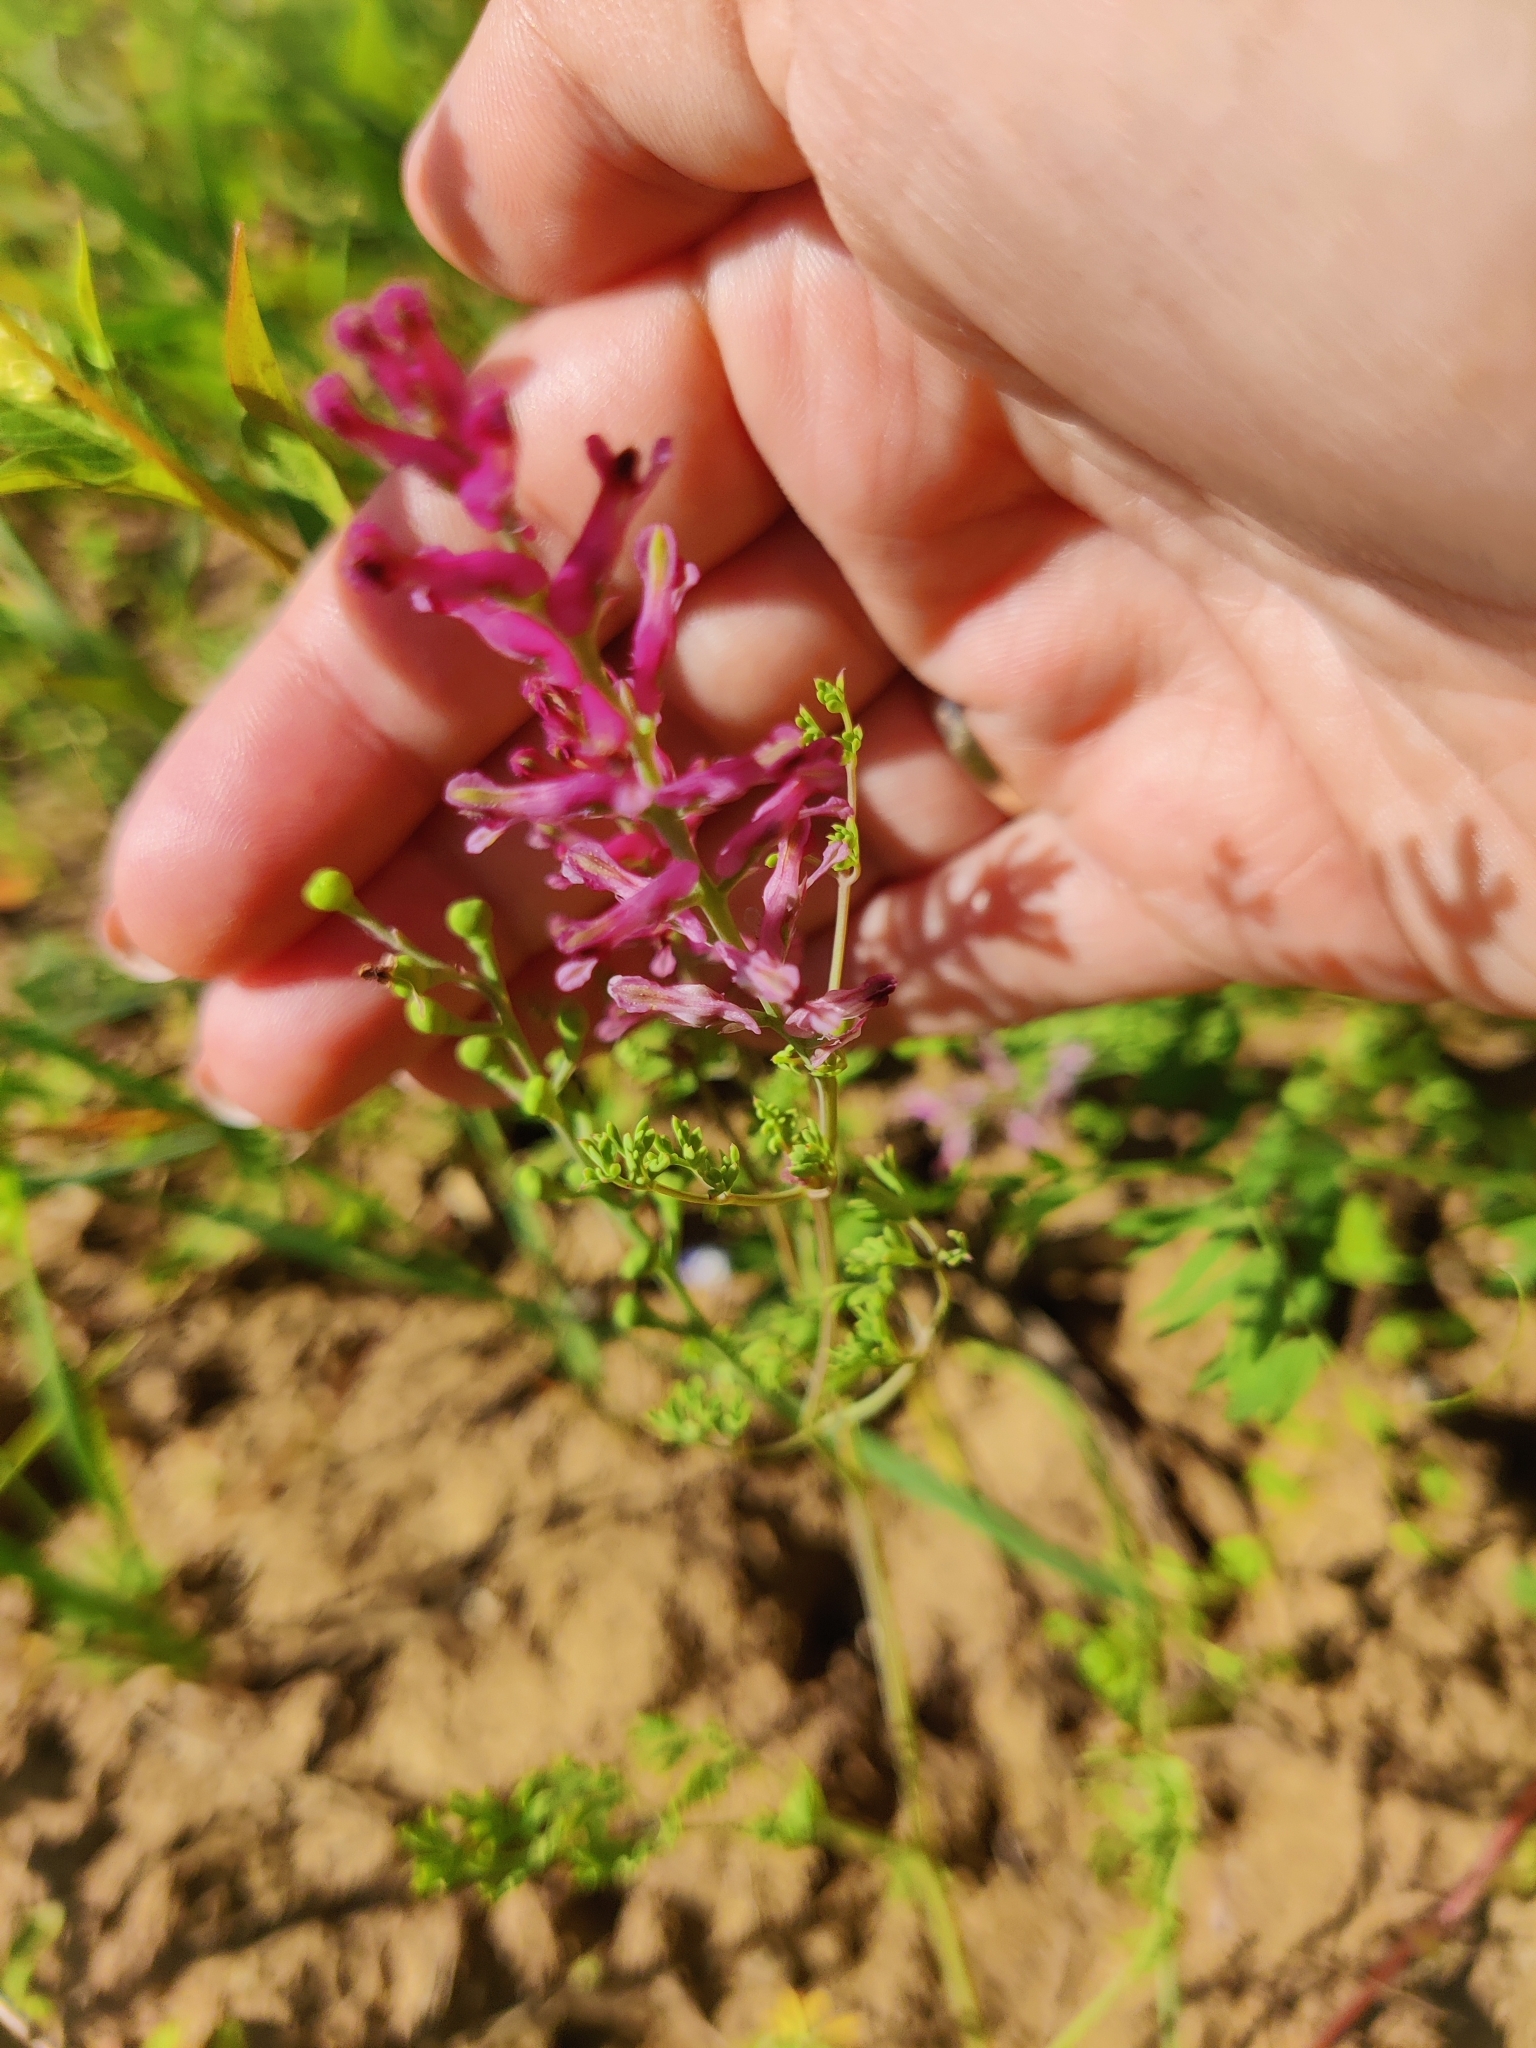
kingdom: Plantae
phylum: Tracheophyta
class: Magnoliopsida
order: Ranunculales
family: Papaveraceae
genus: Fumaria
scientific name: Fumaria officinalis
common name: Common fumitory
